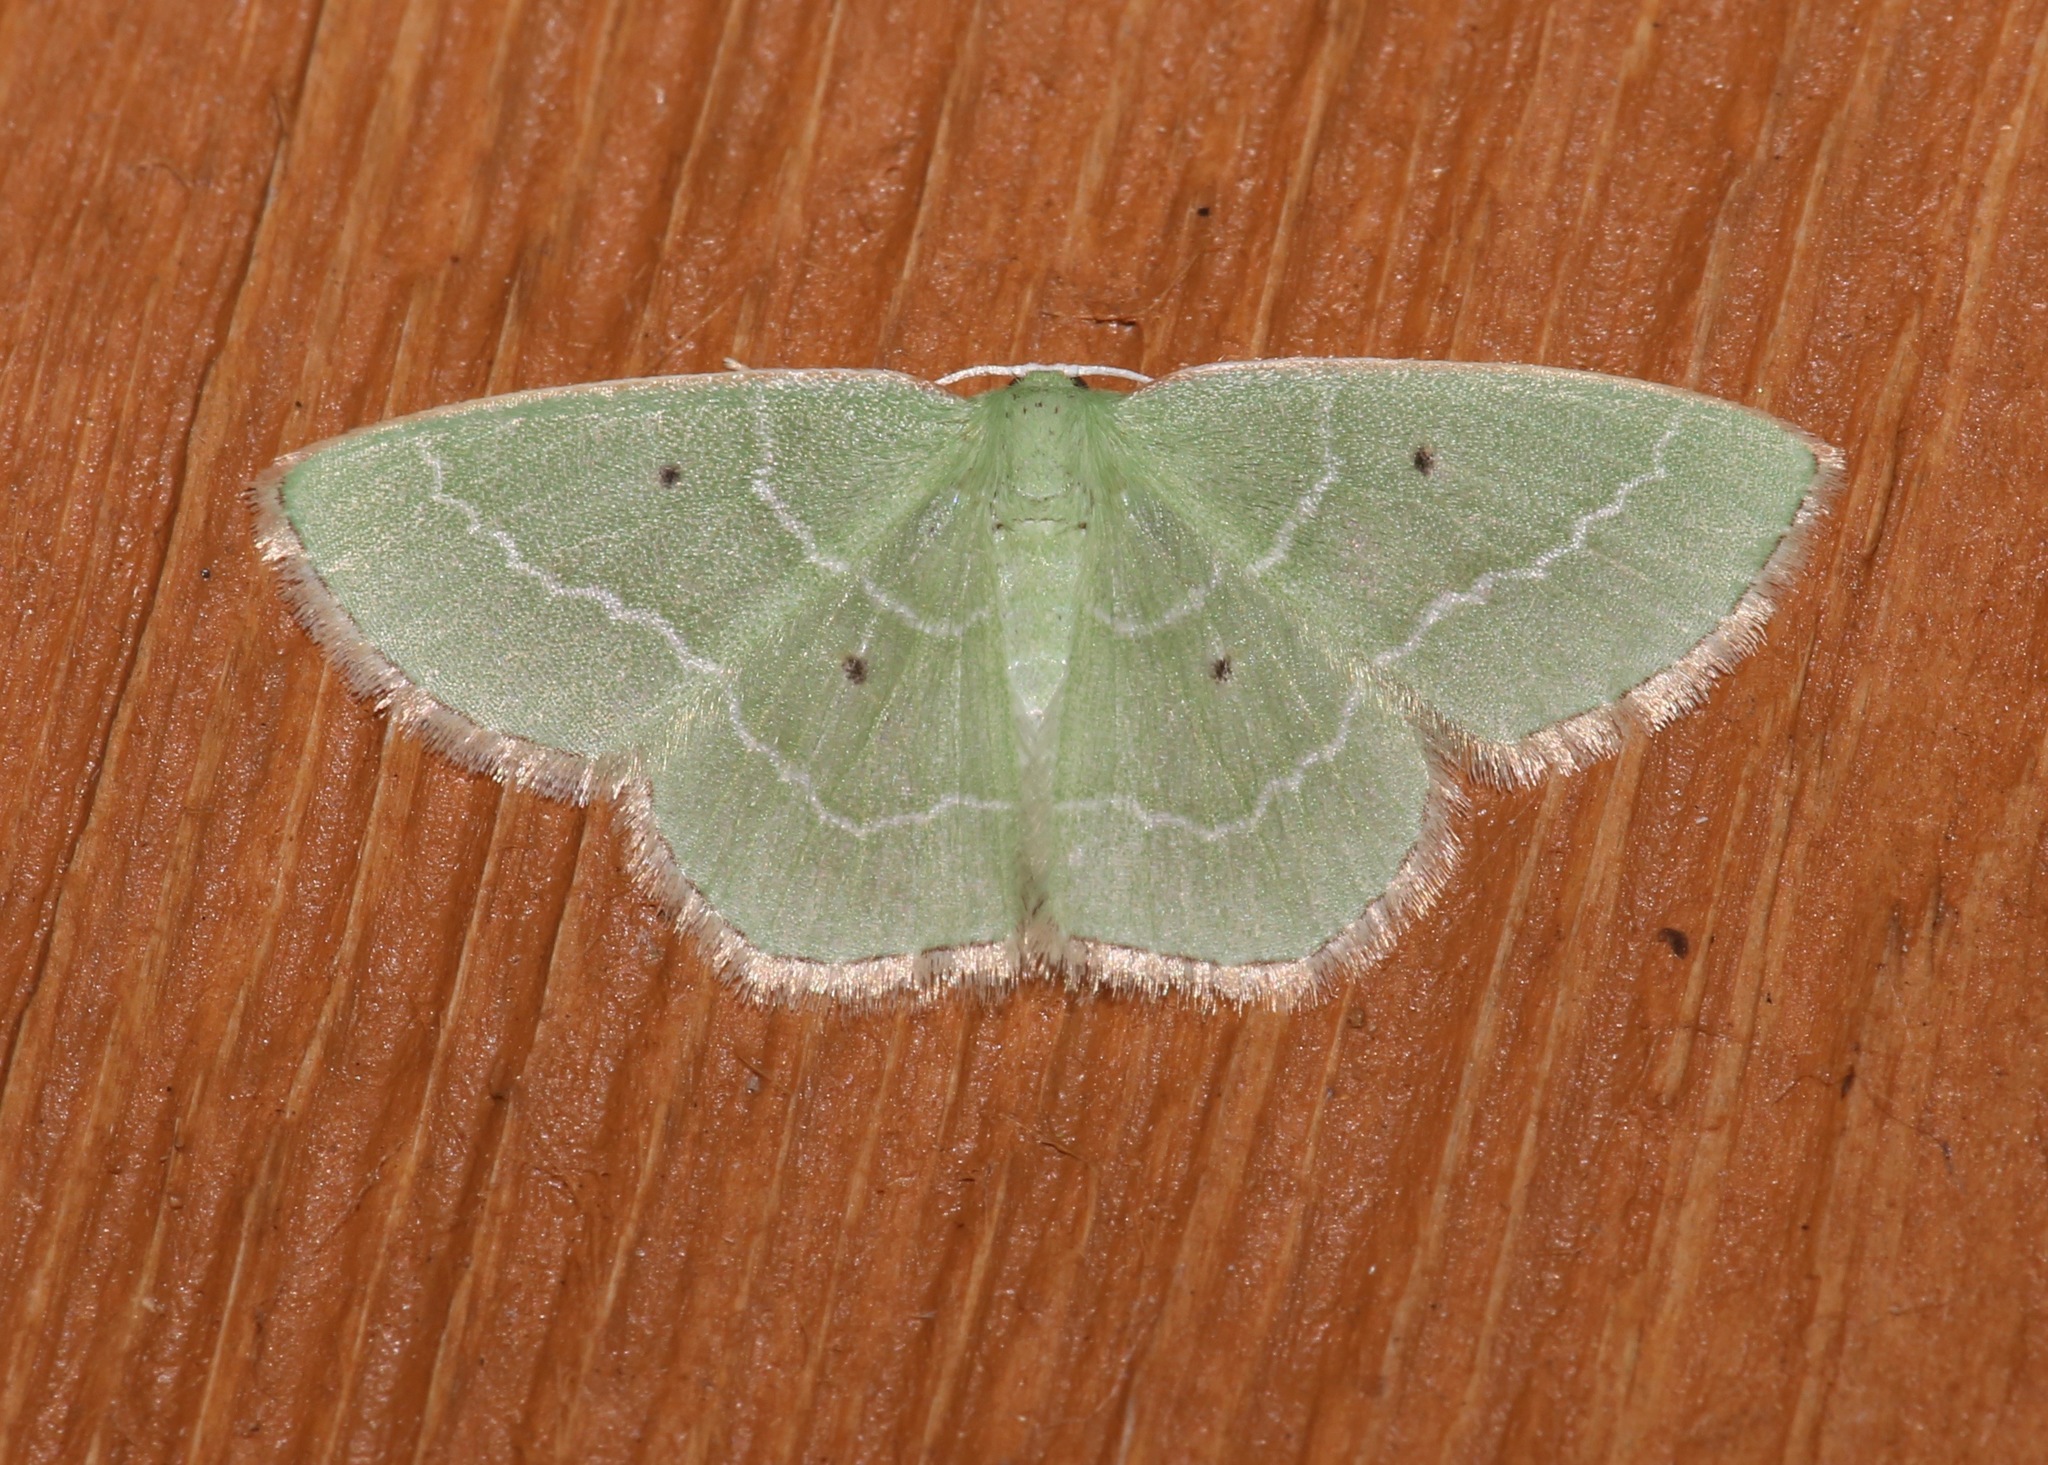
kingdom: Animalia
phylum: Arthropoda
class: Insecta
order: Lepidoptera
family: Geometridae
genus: Nemoria
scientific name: Nemoria elfa
